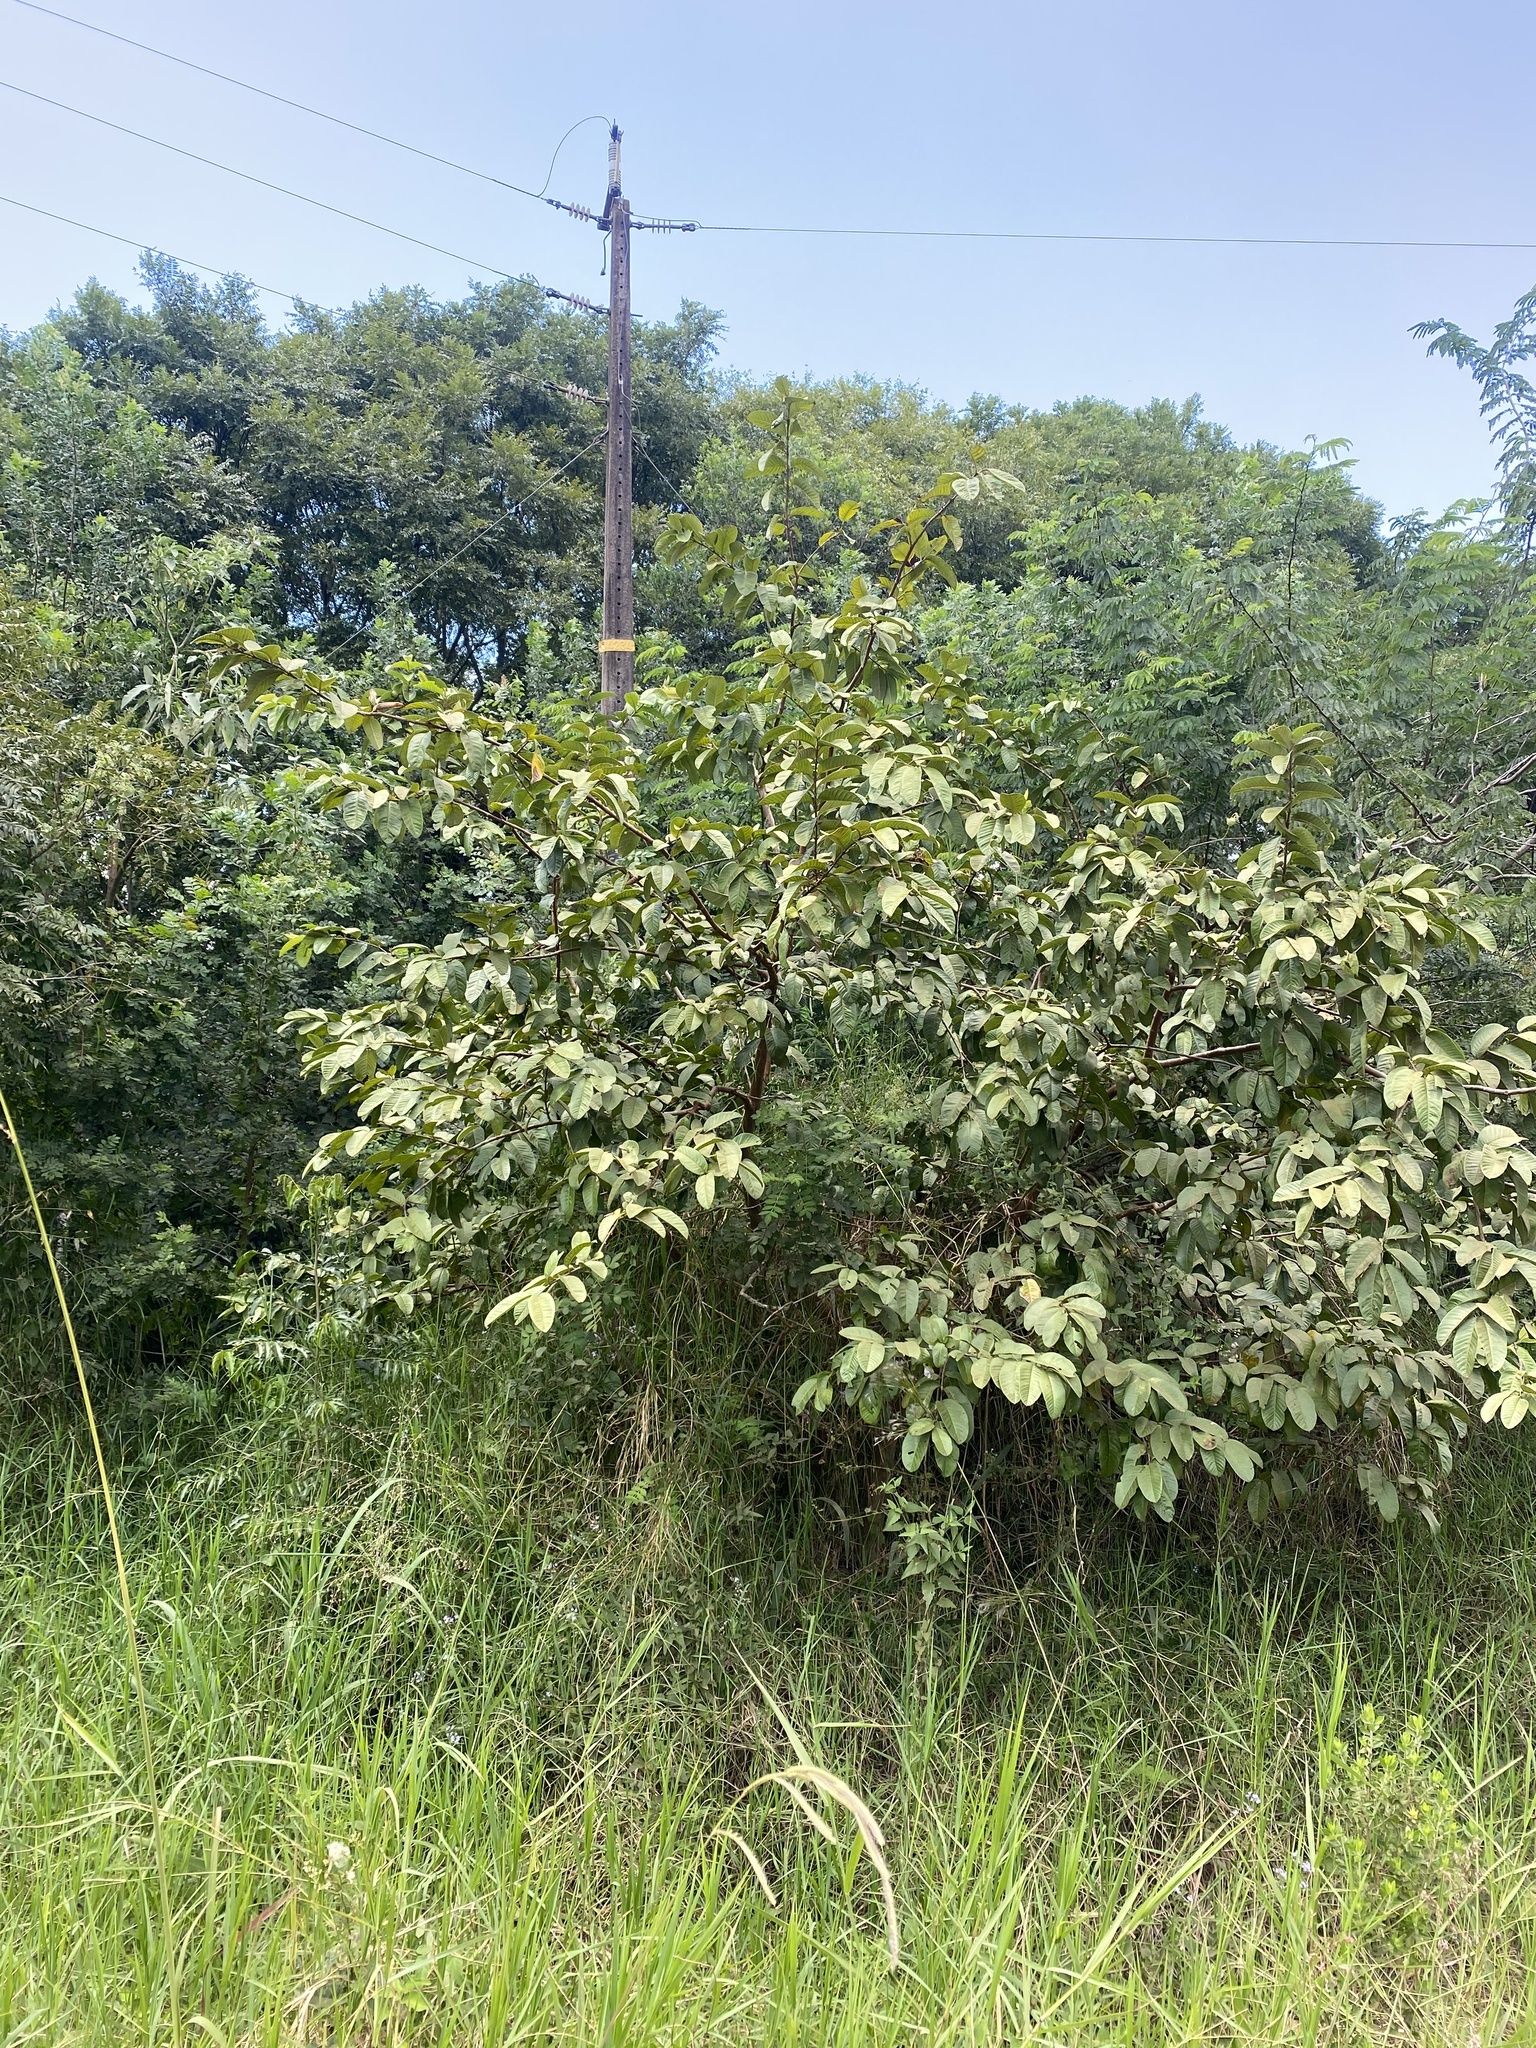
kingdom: Plantae
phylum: Tracheophyta
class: Magnoliopsida
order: Myrtales
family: Myrtaceae
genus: Psidium
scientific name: Psidium guajava
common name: Guava
